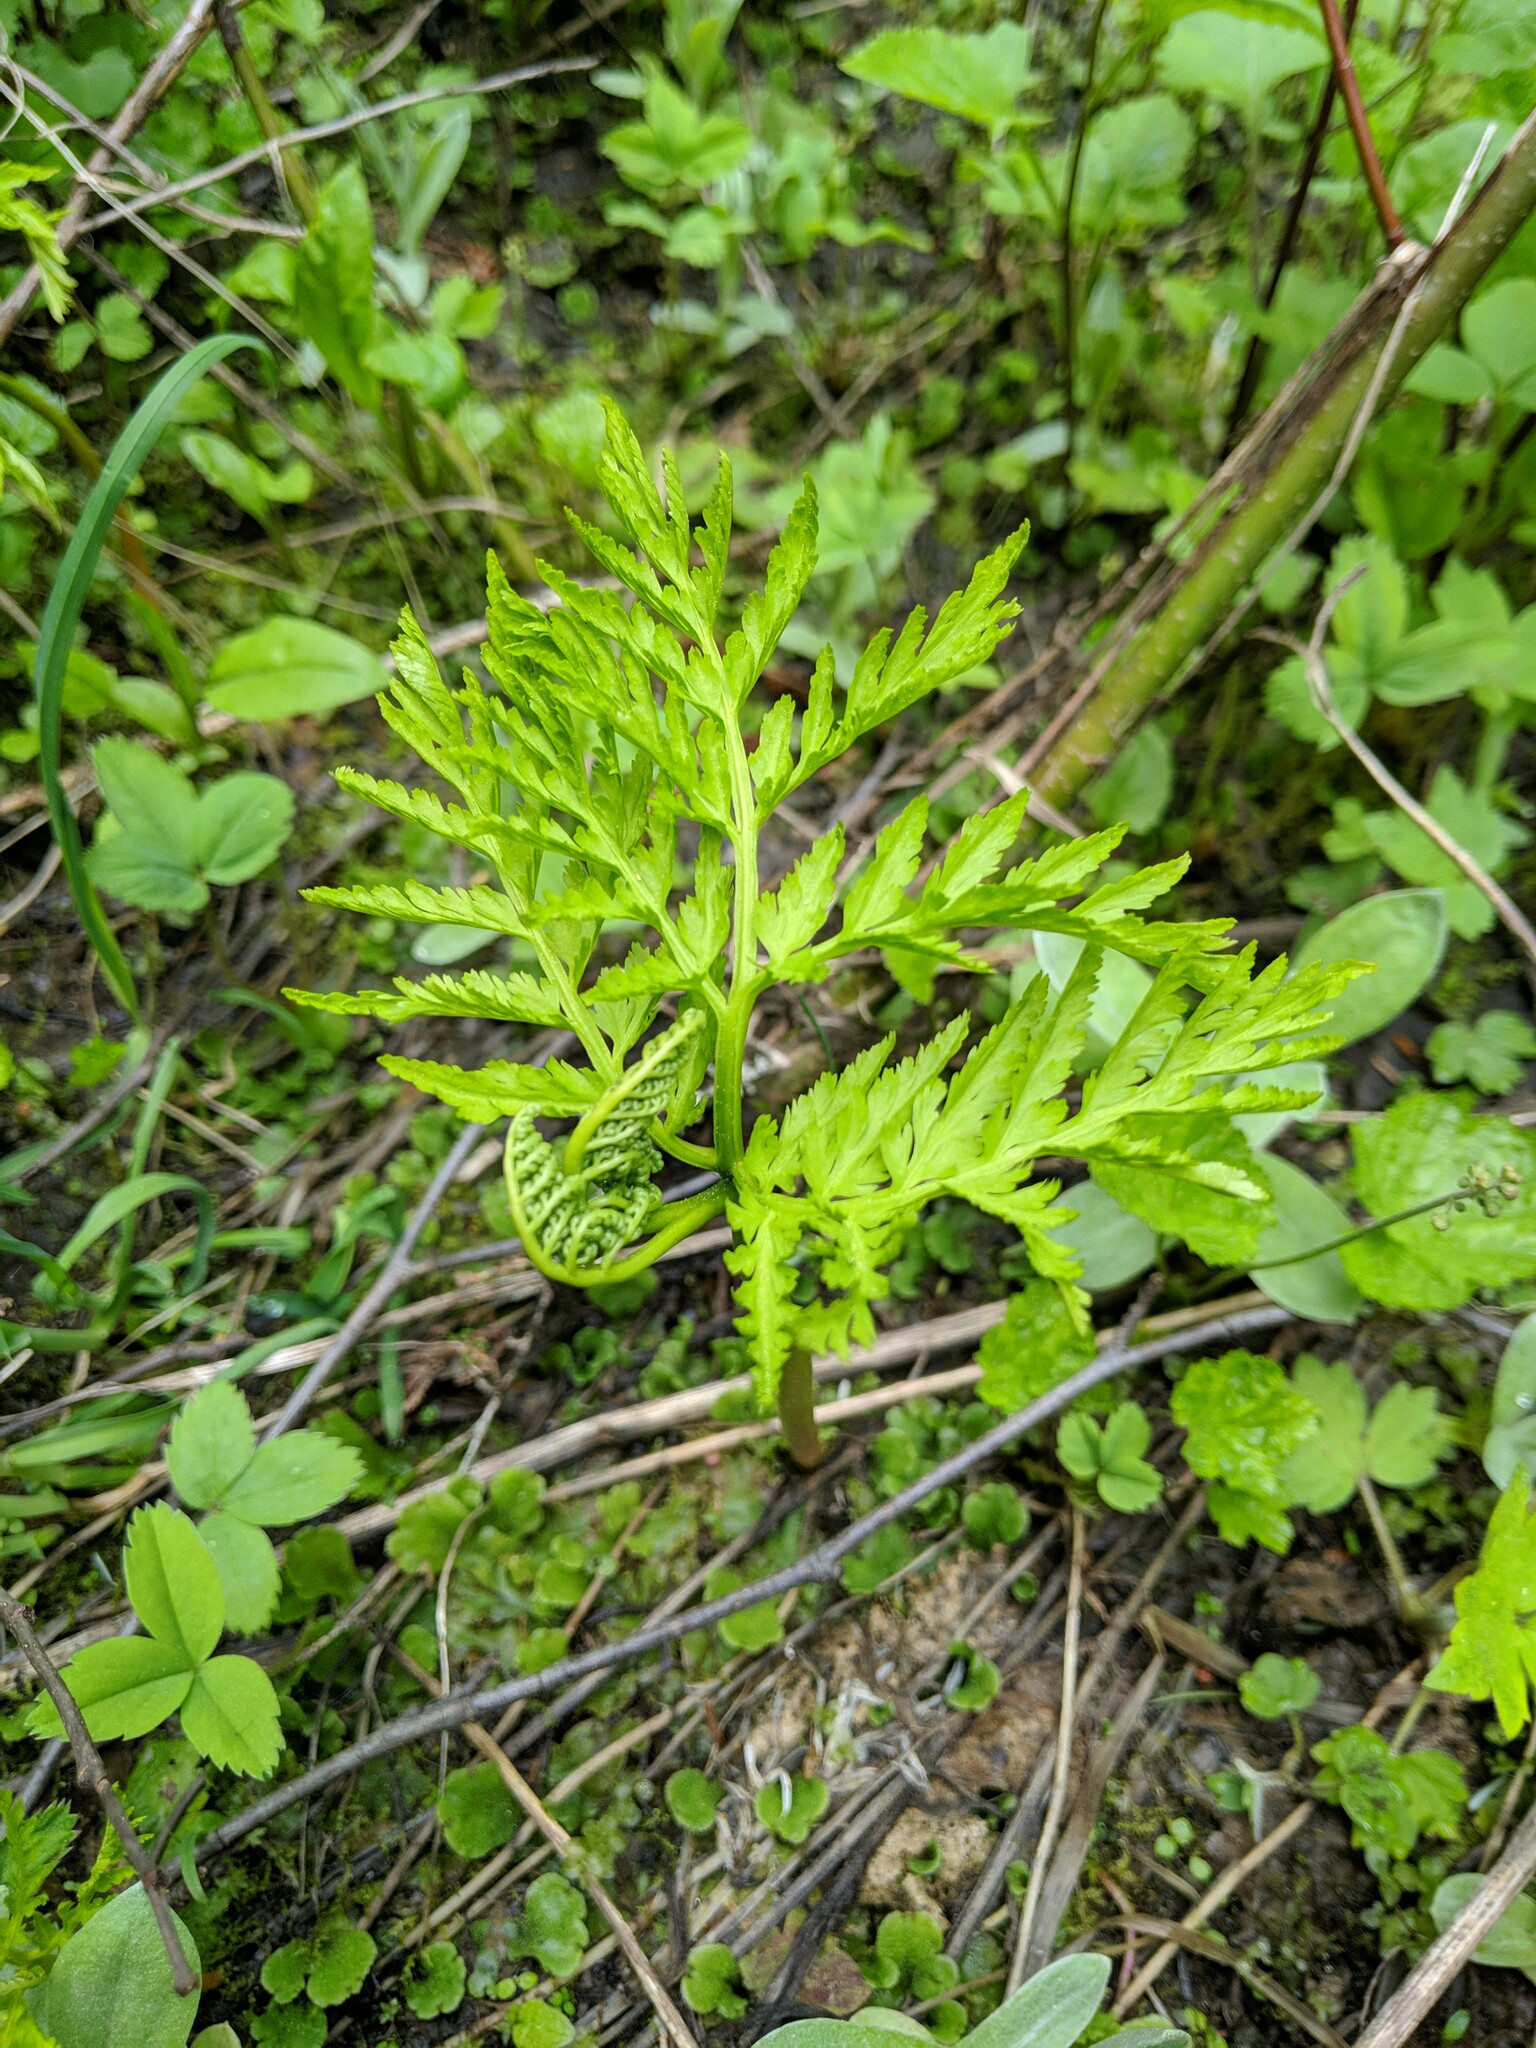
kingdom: Plantae
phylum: Tracheophyta
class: Polypodiopsida
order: Ophioglossales
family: Ophioglossaceae
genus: Botrypus
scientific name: Botrypus virginianus
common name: Common grapefern
